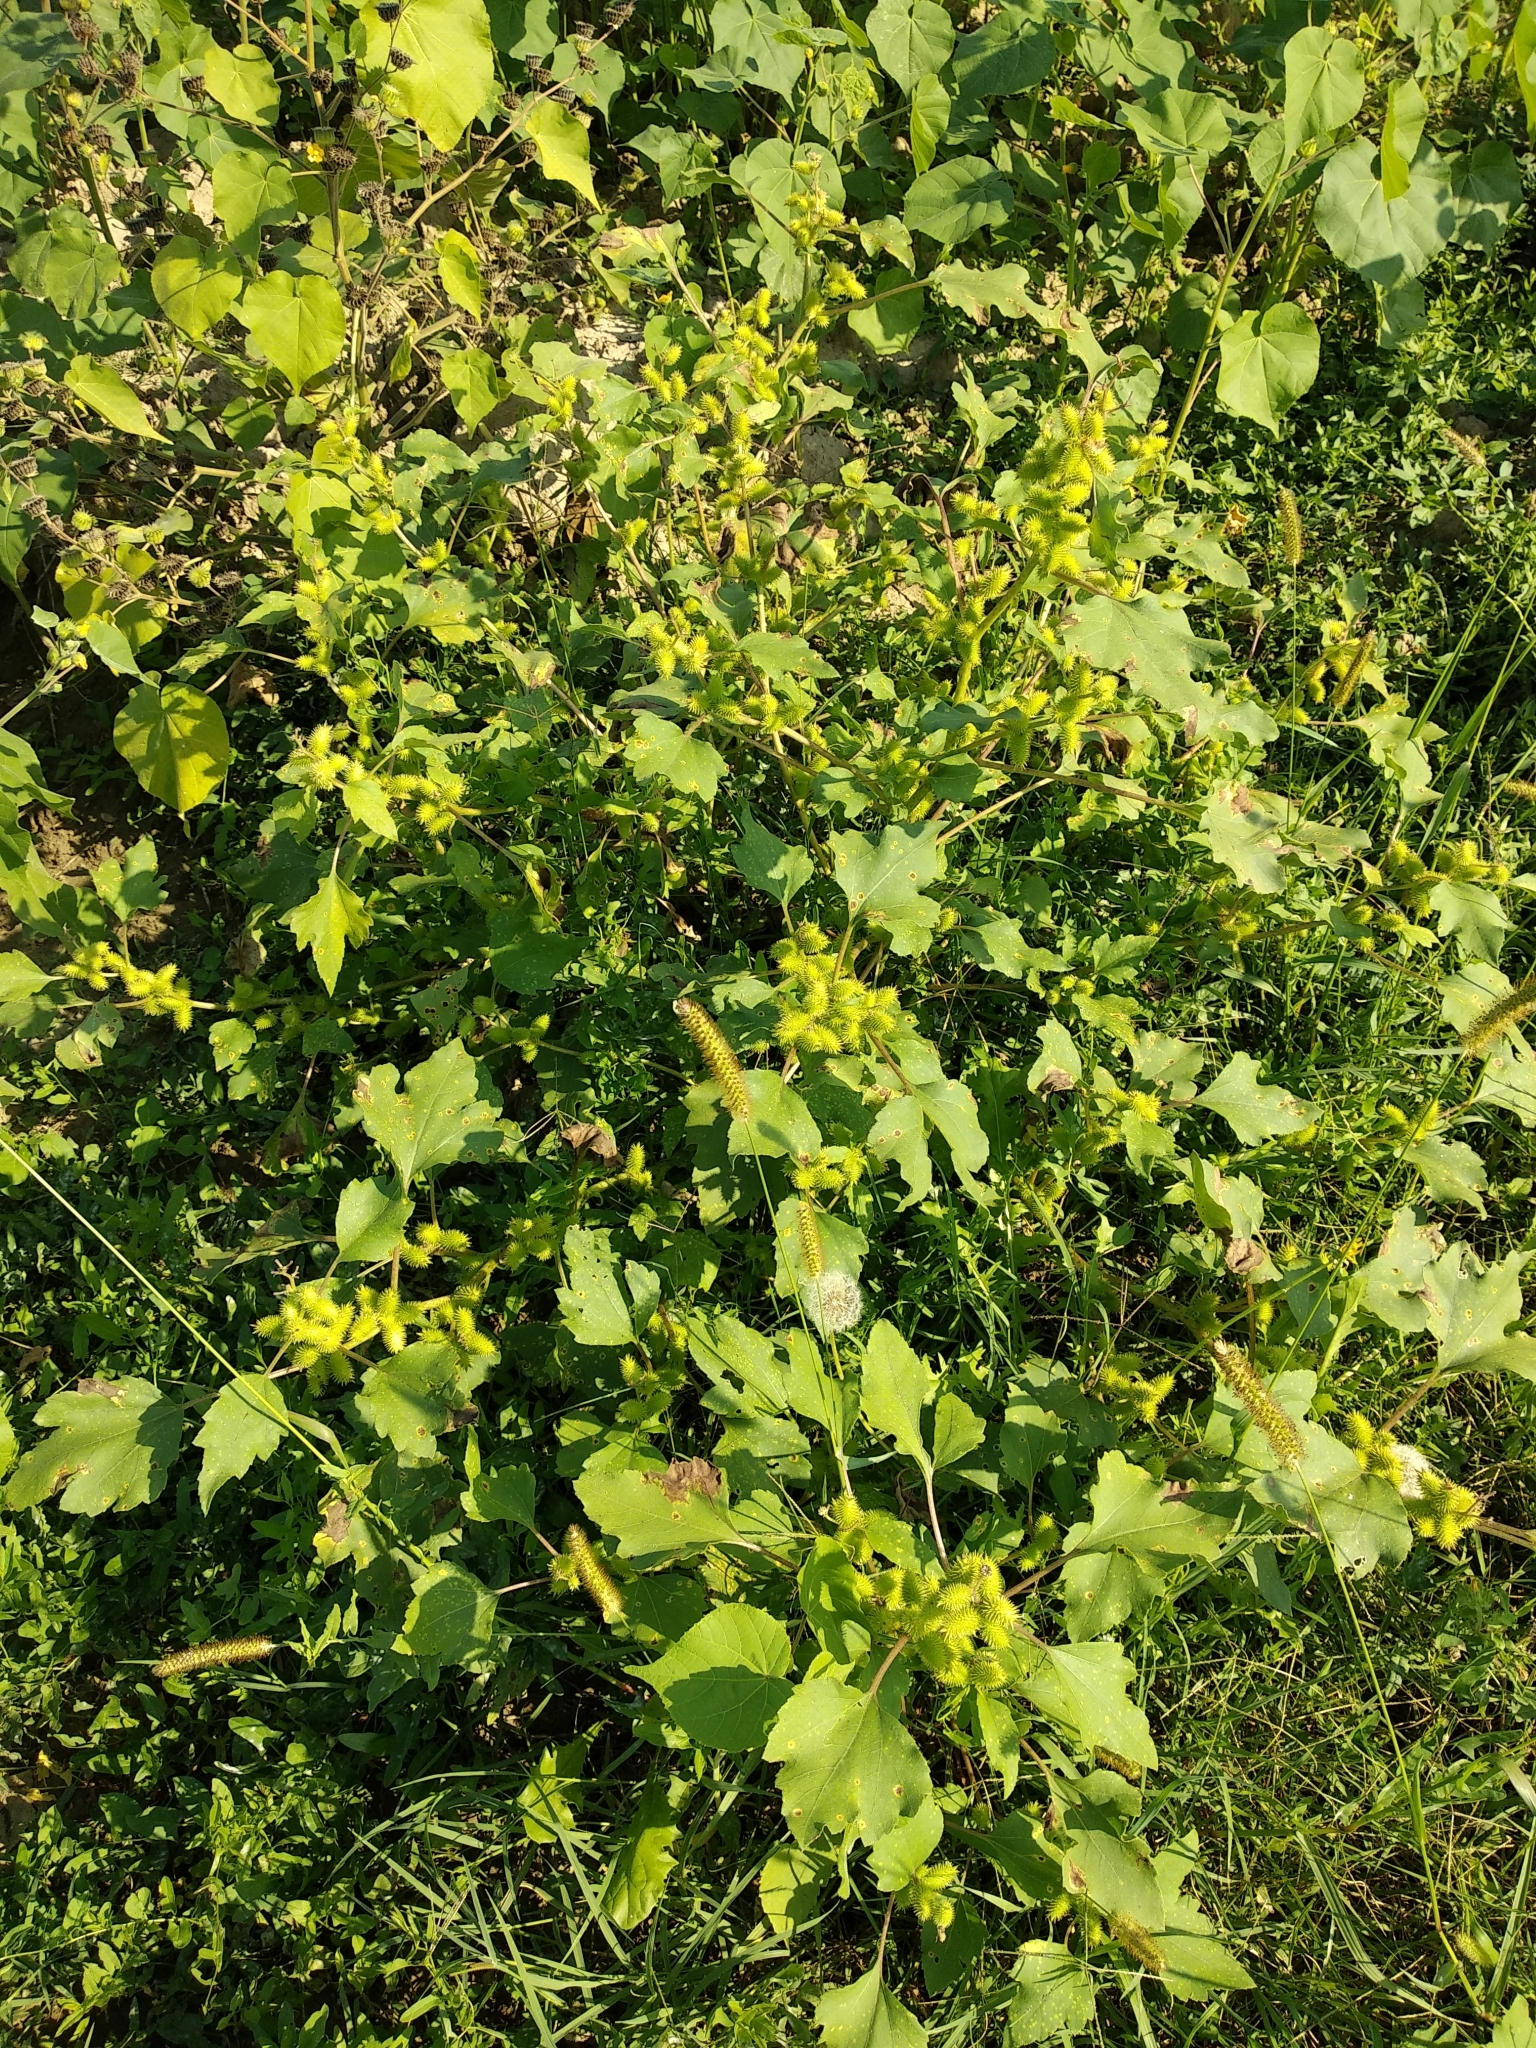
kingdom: Plantae
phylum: Tracheophyta
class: Magnoliopsida
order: Asterales
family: Asteraceae
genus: Xanthium
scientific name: Xanthium orientale
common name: Californian burr
